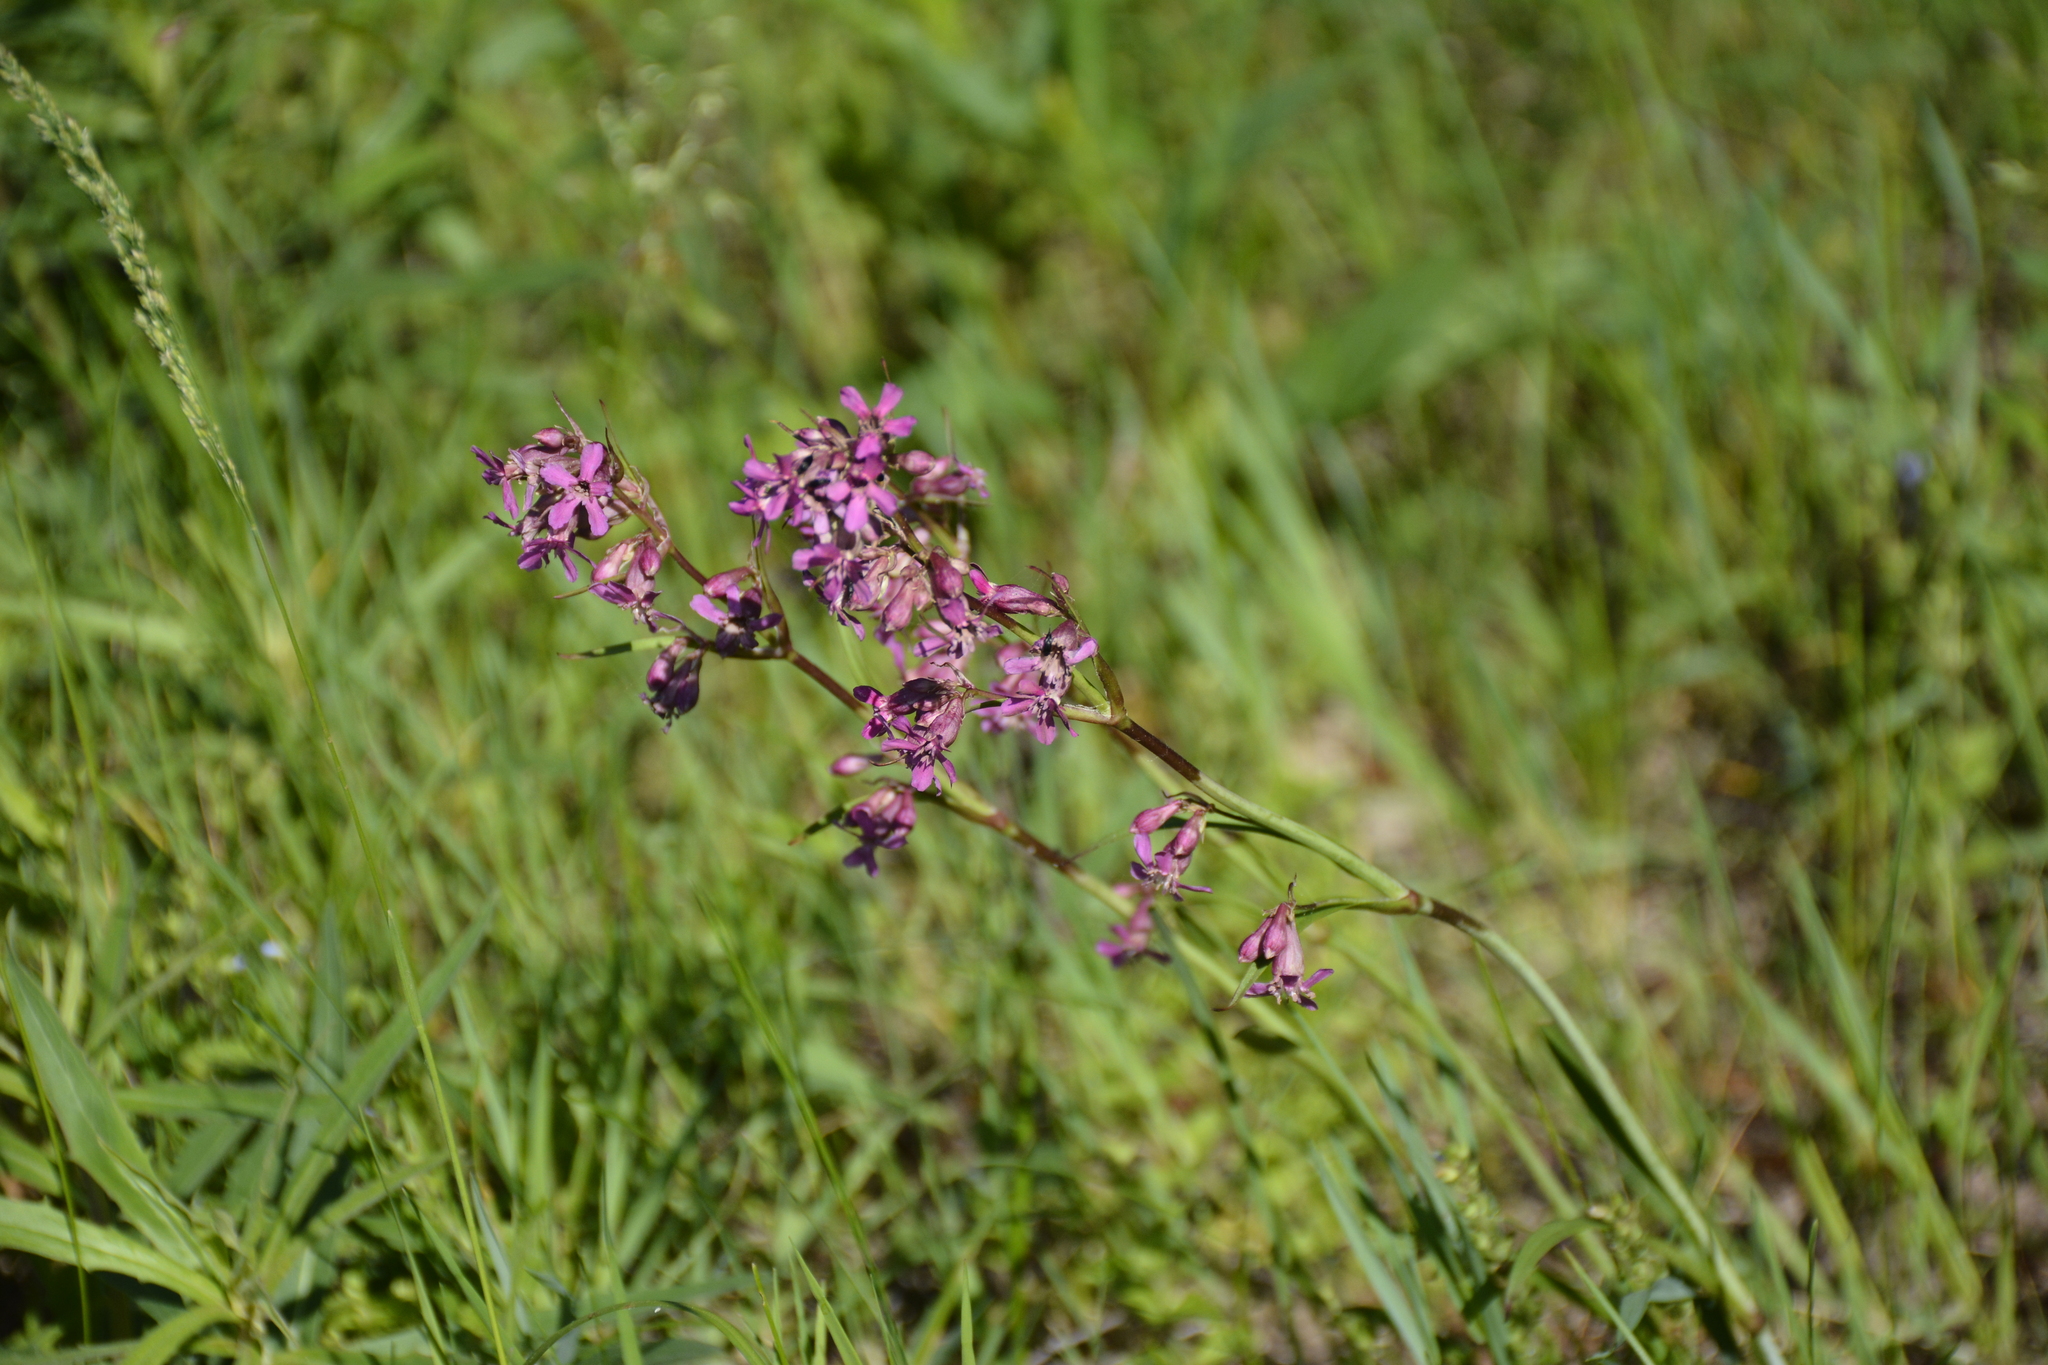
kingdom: Plantae
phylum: Tracheophyta
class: Magnoliopsida
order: Caryophyllales
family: Caryophyllaceae
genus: Viscaria
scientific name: Viscaria vulgaris
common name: Clammy campion
